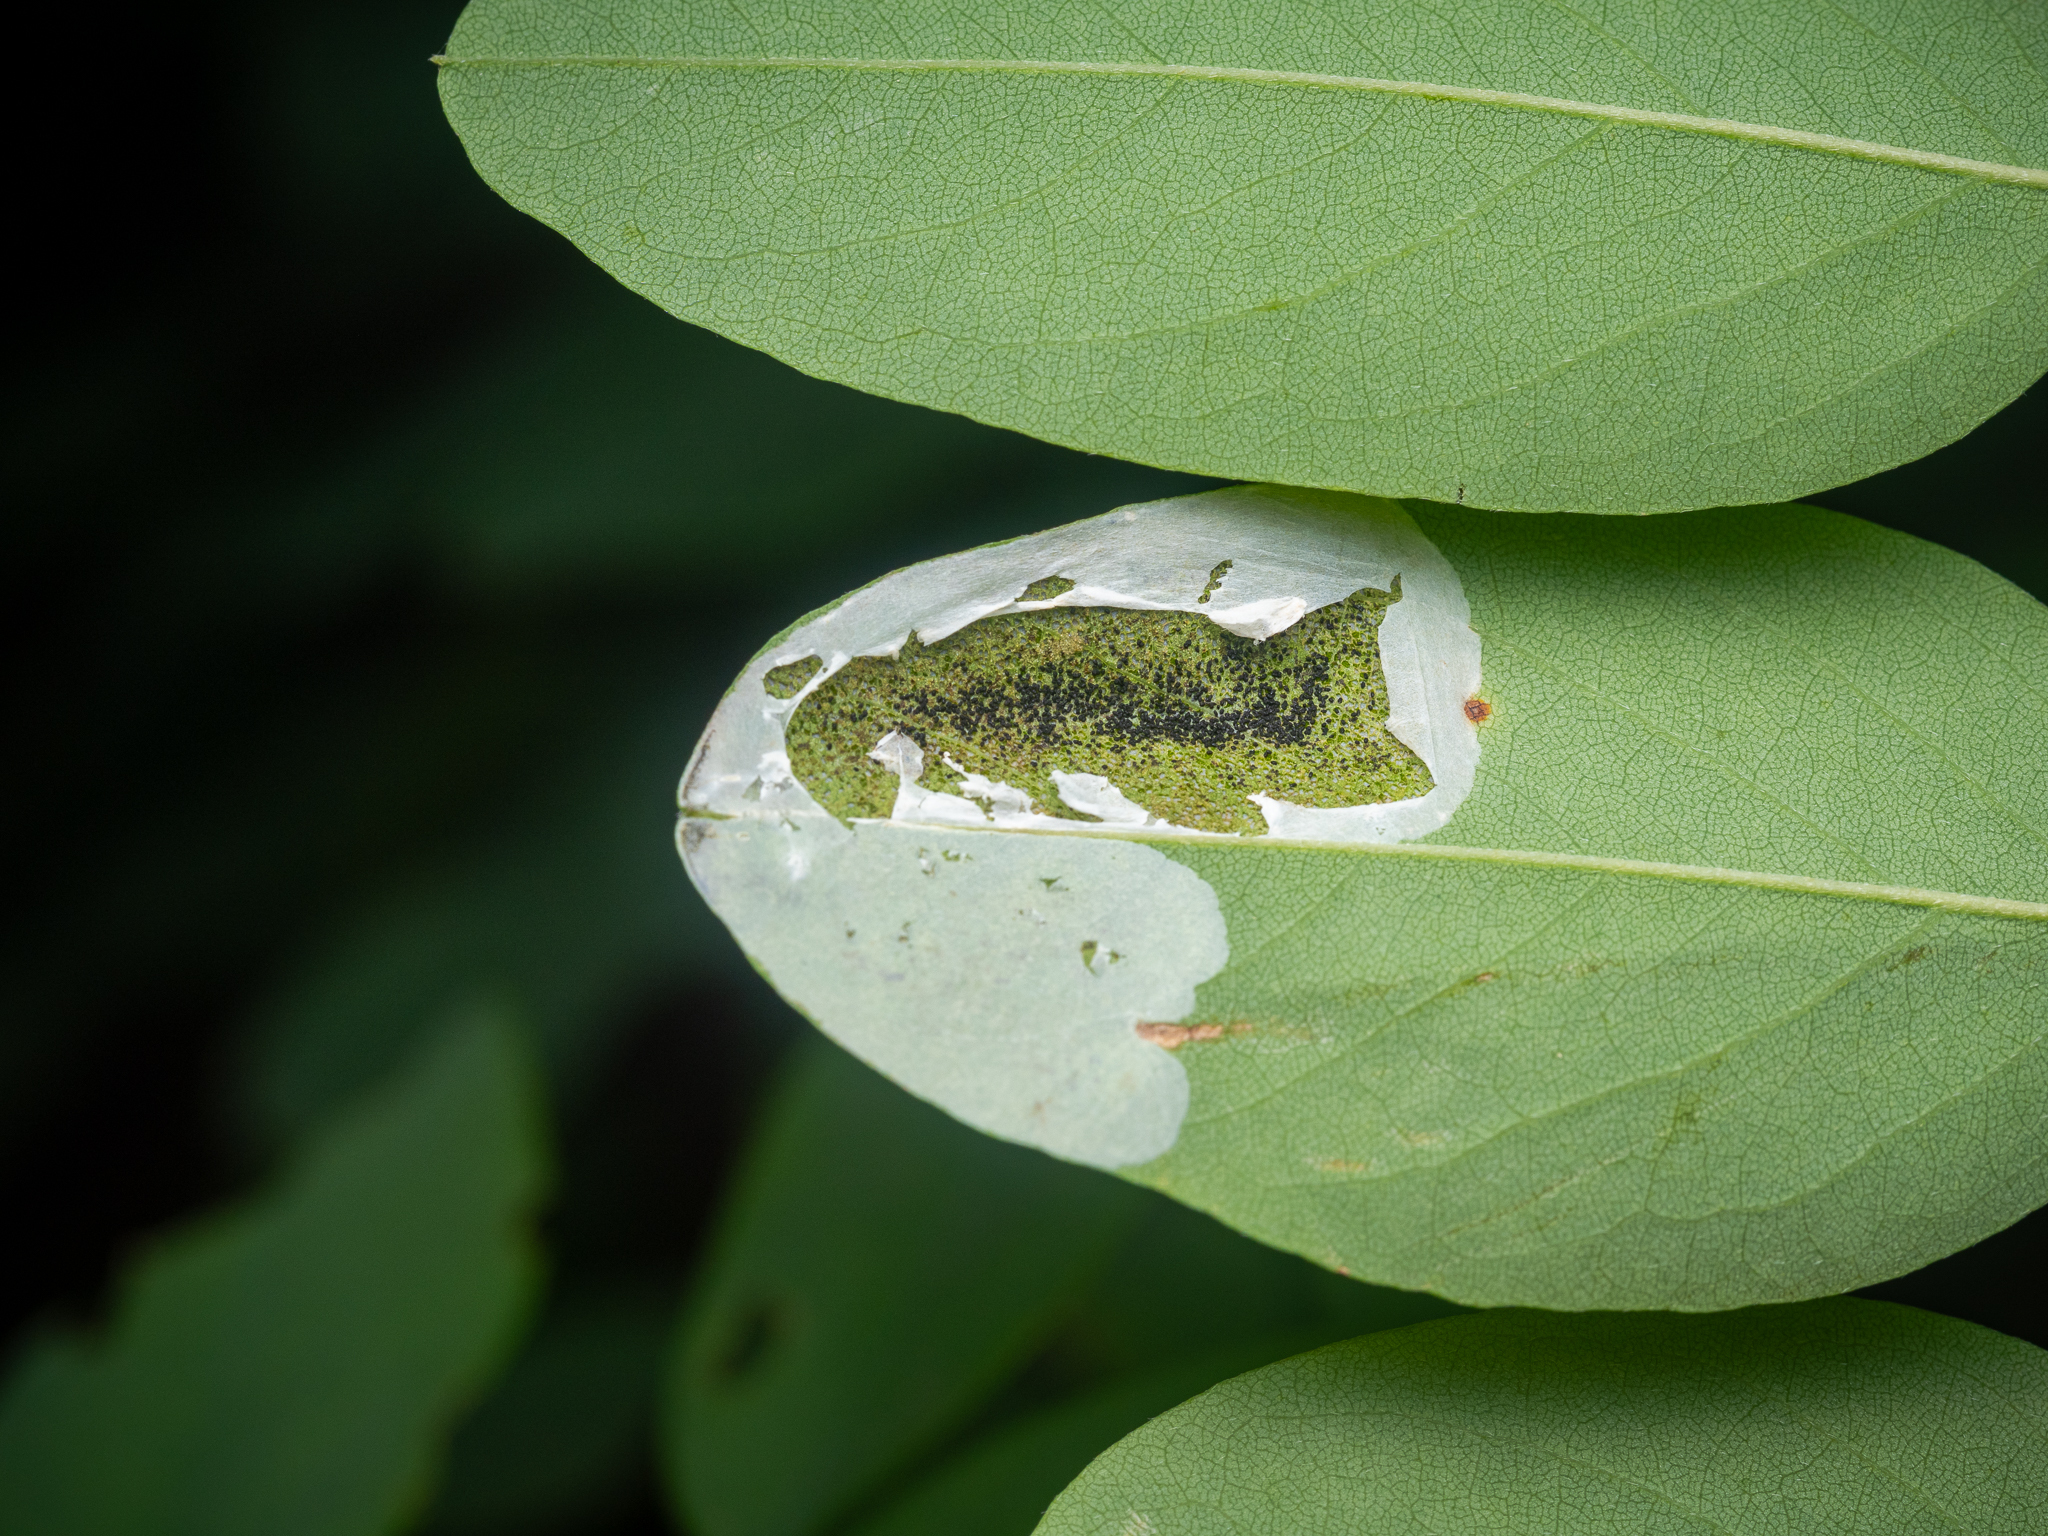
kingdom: Animalia
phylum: Arthropoda
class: Insecta
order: Lepidoptera
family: Gracillariidae
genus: Macrosaccus
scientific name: Macrosaccus robiniella
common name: Leaf blotch miner moth
